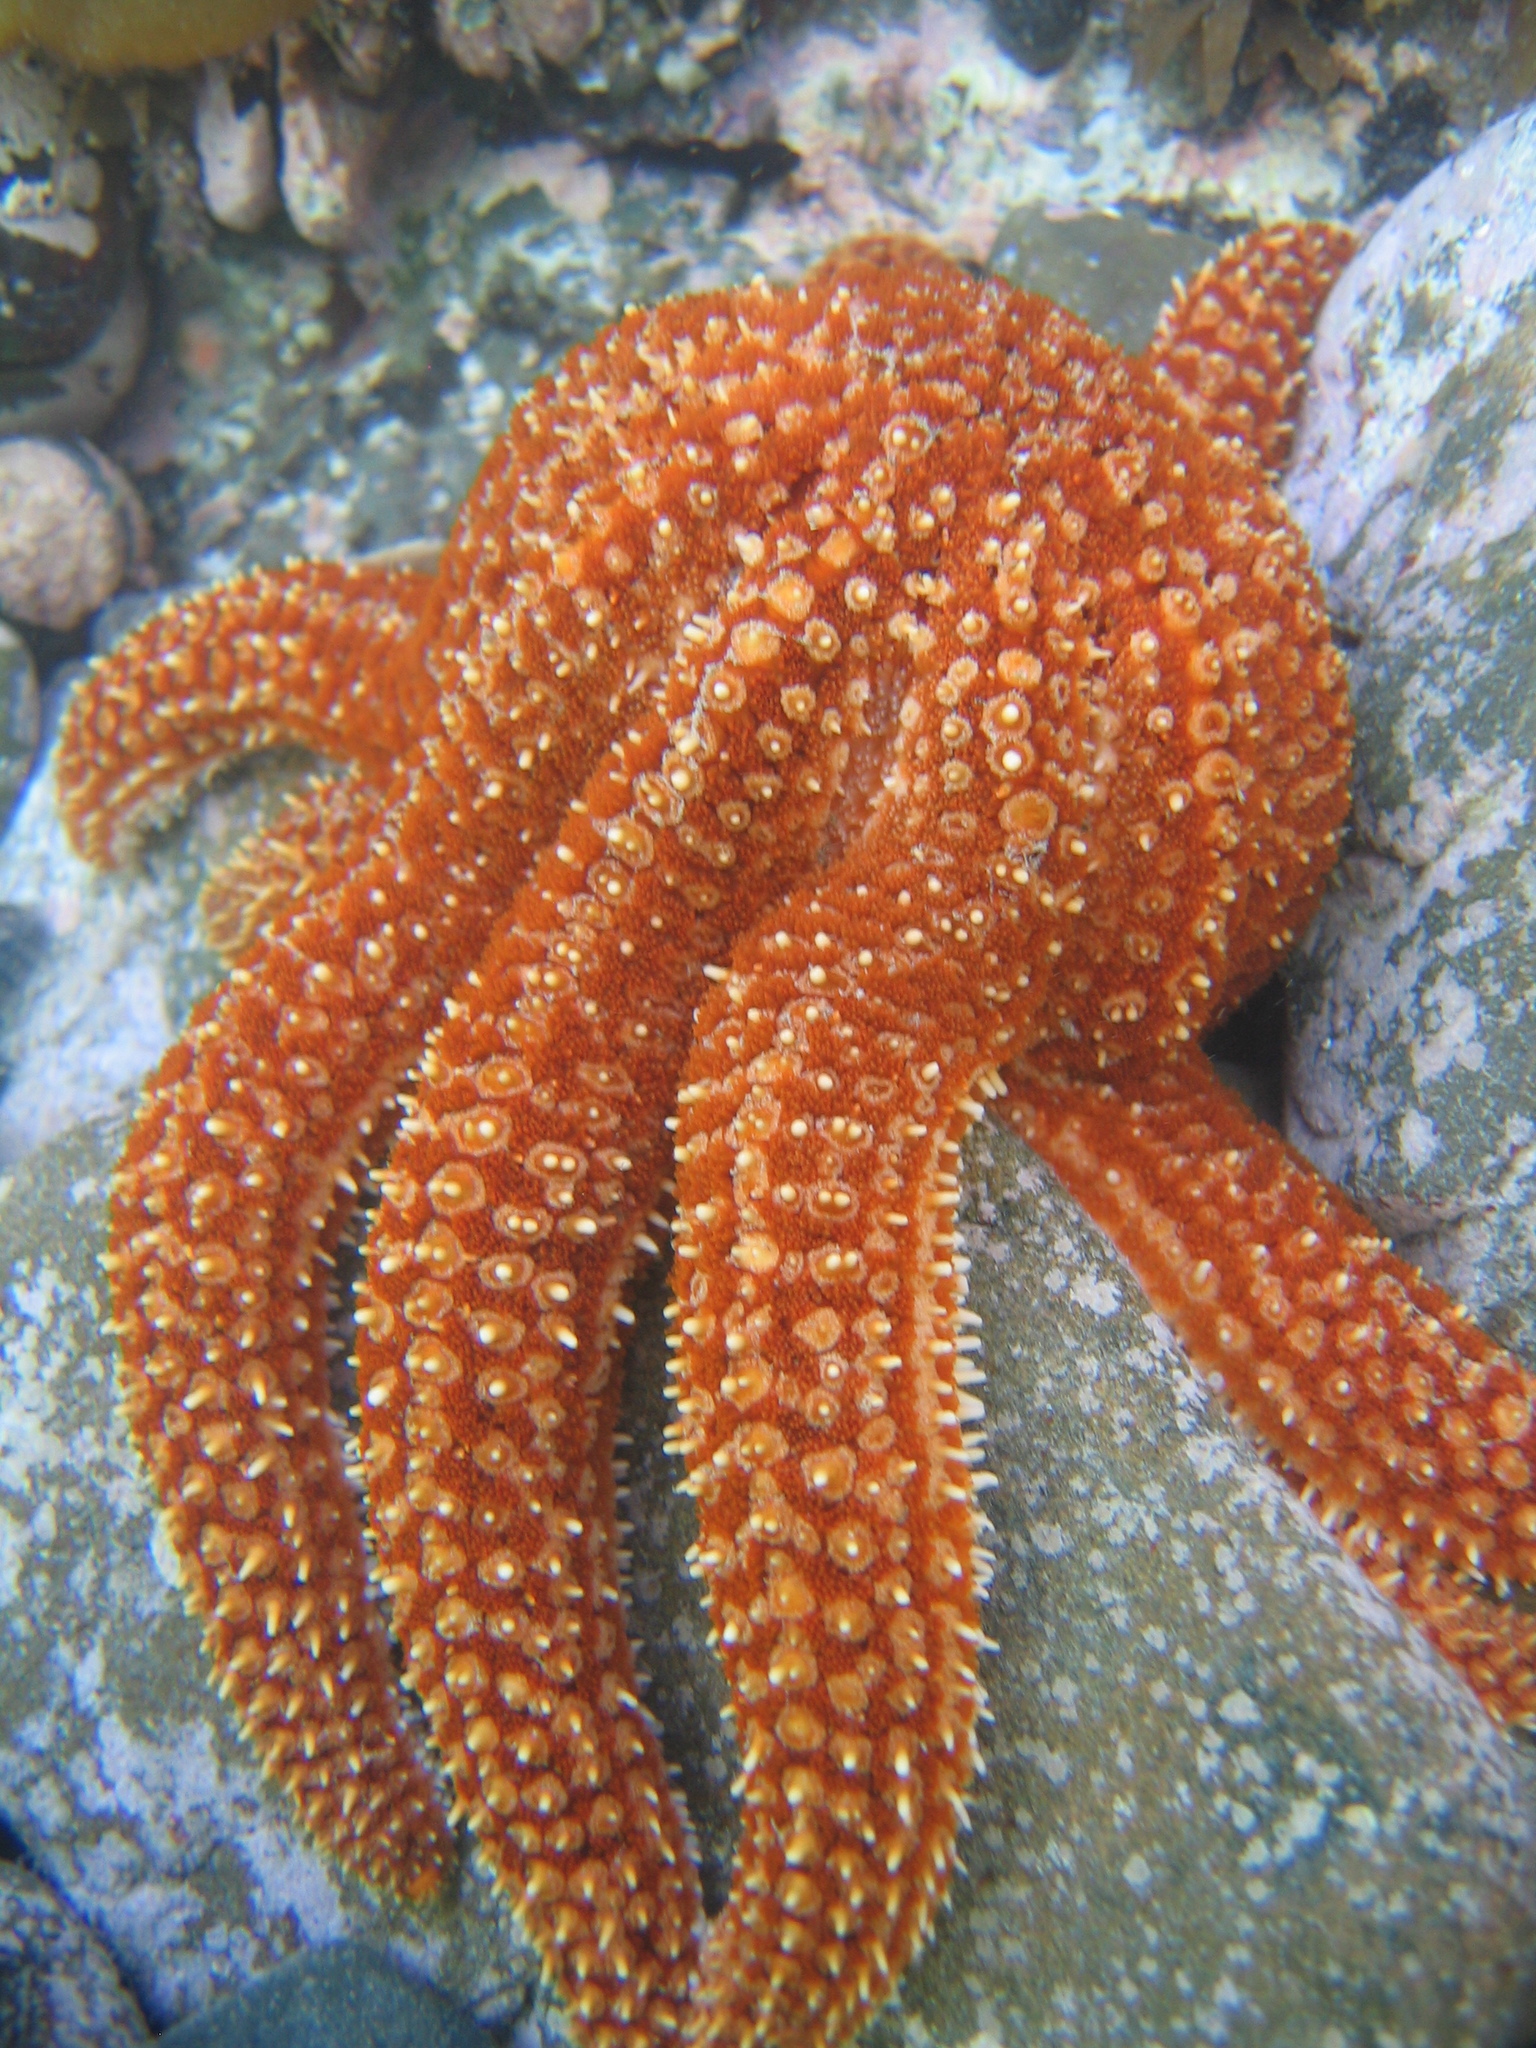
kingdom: Animalia
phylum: Echinodermata
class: Asteroidea
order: Forcipulatida
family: Asteriidae
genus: Coscinasterias
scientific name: Coscinasterias muricata
